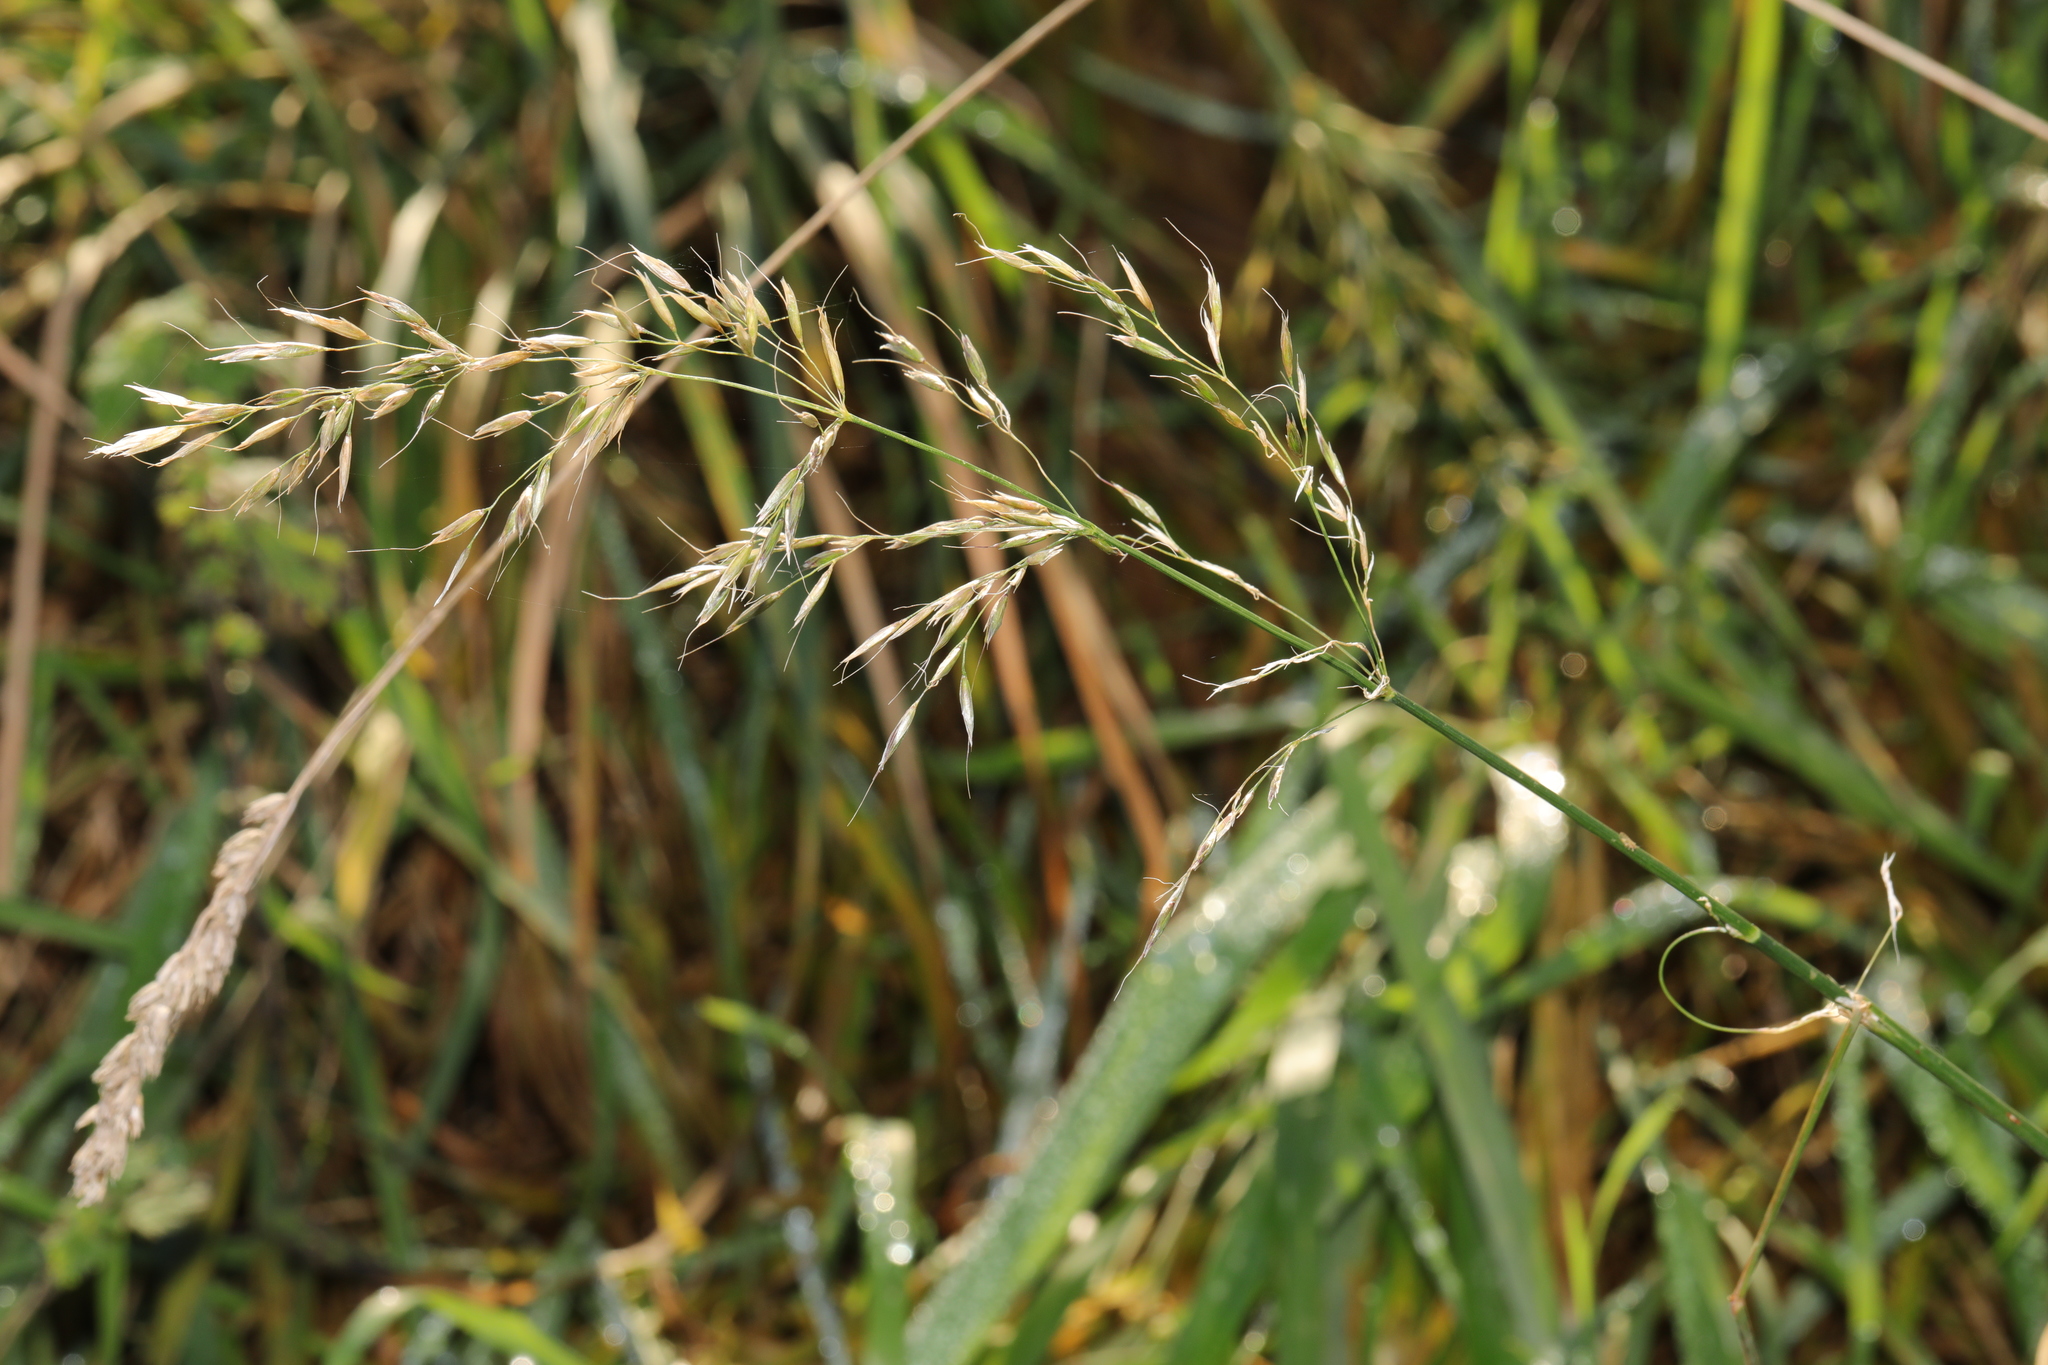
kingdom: Plantae
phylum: Tracheophyta
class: Liliopsida
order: Poales
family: Poaceae
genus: Arrhenatherum
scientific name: Arrhenatherum elatius
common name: Tall oatgrass
